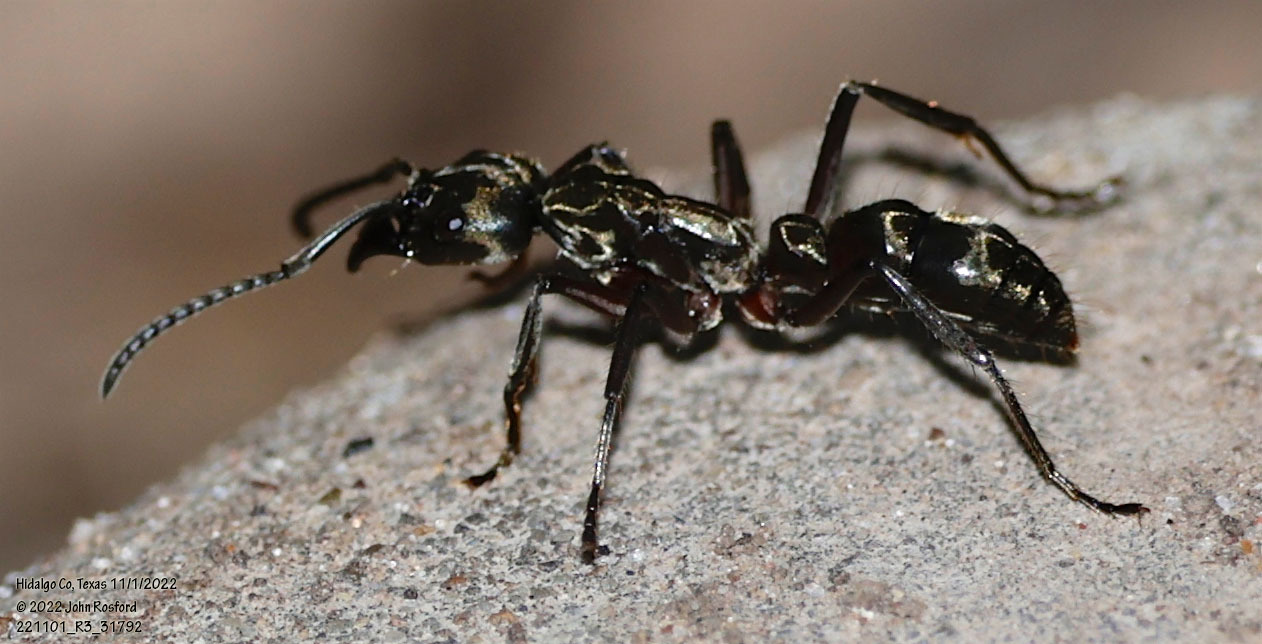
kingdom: Animalia
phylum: Arthropoda
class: Insecta
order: Hymenoptera
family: Formicidae
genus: Pachycondyla
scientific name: Pachycondyla villosa
